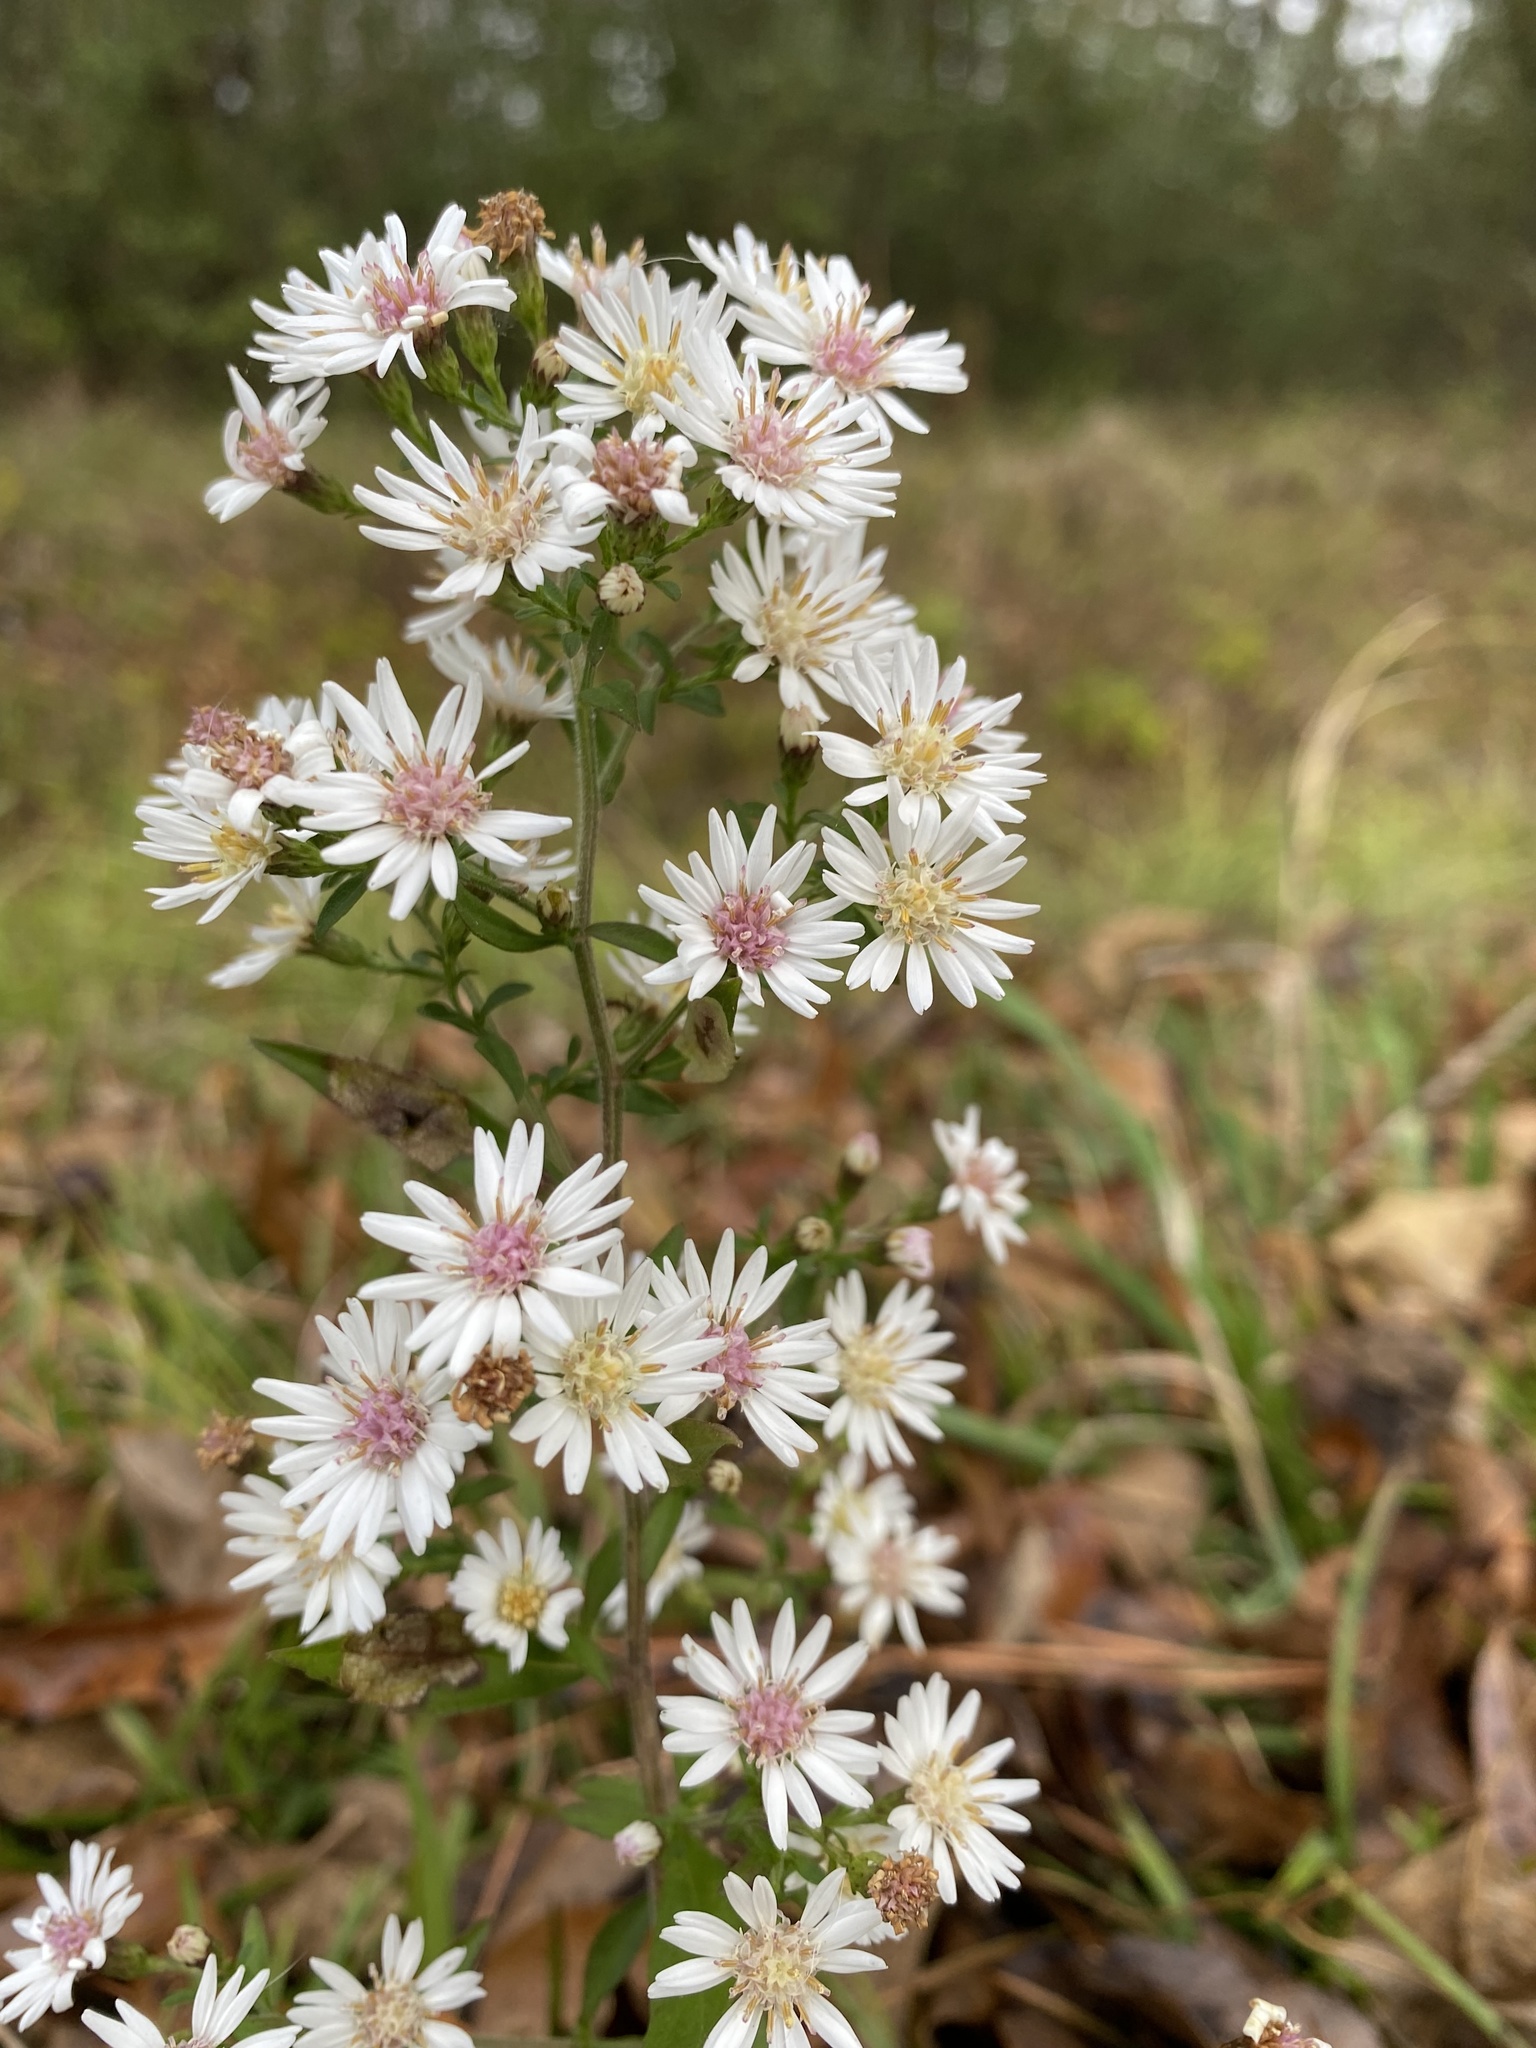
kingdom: Plantae
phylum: Tracheophyta
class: Magnoliopsida
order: Asterales
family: Asteraceae
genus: Symphyotrichum
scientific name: Symphyotrichum lateriflorum
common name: Calico aster
